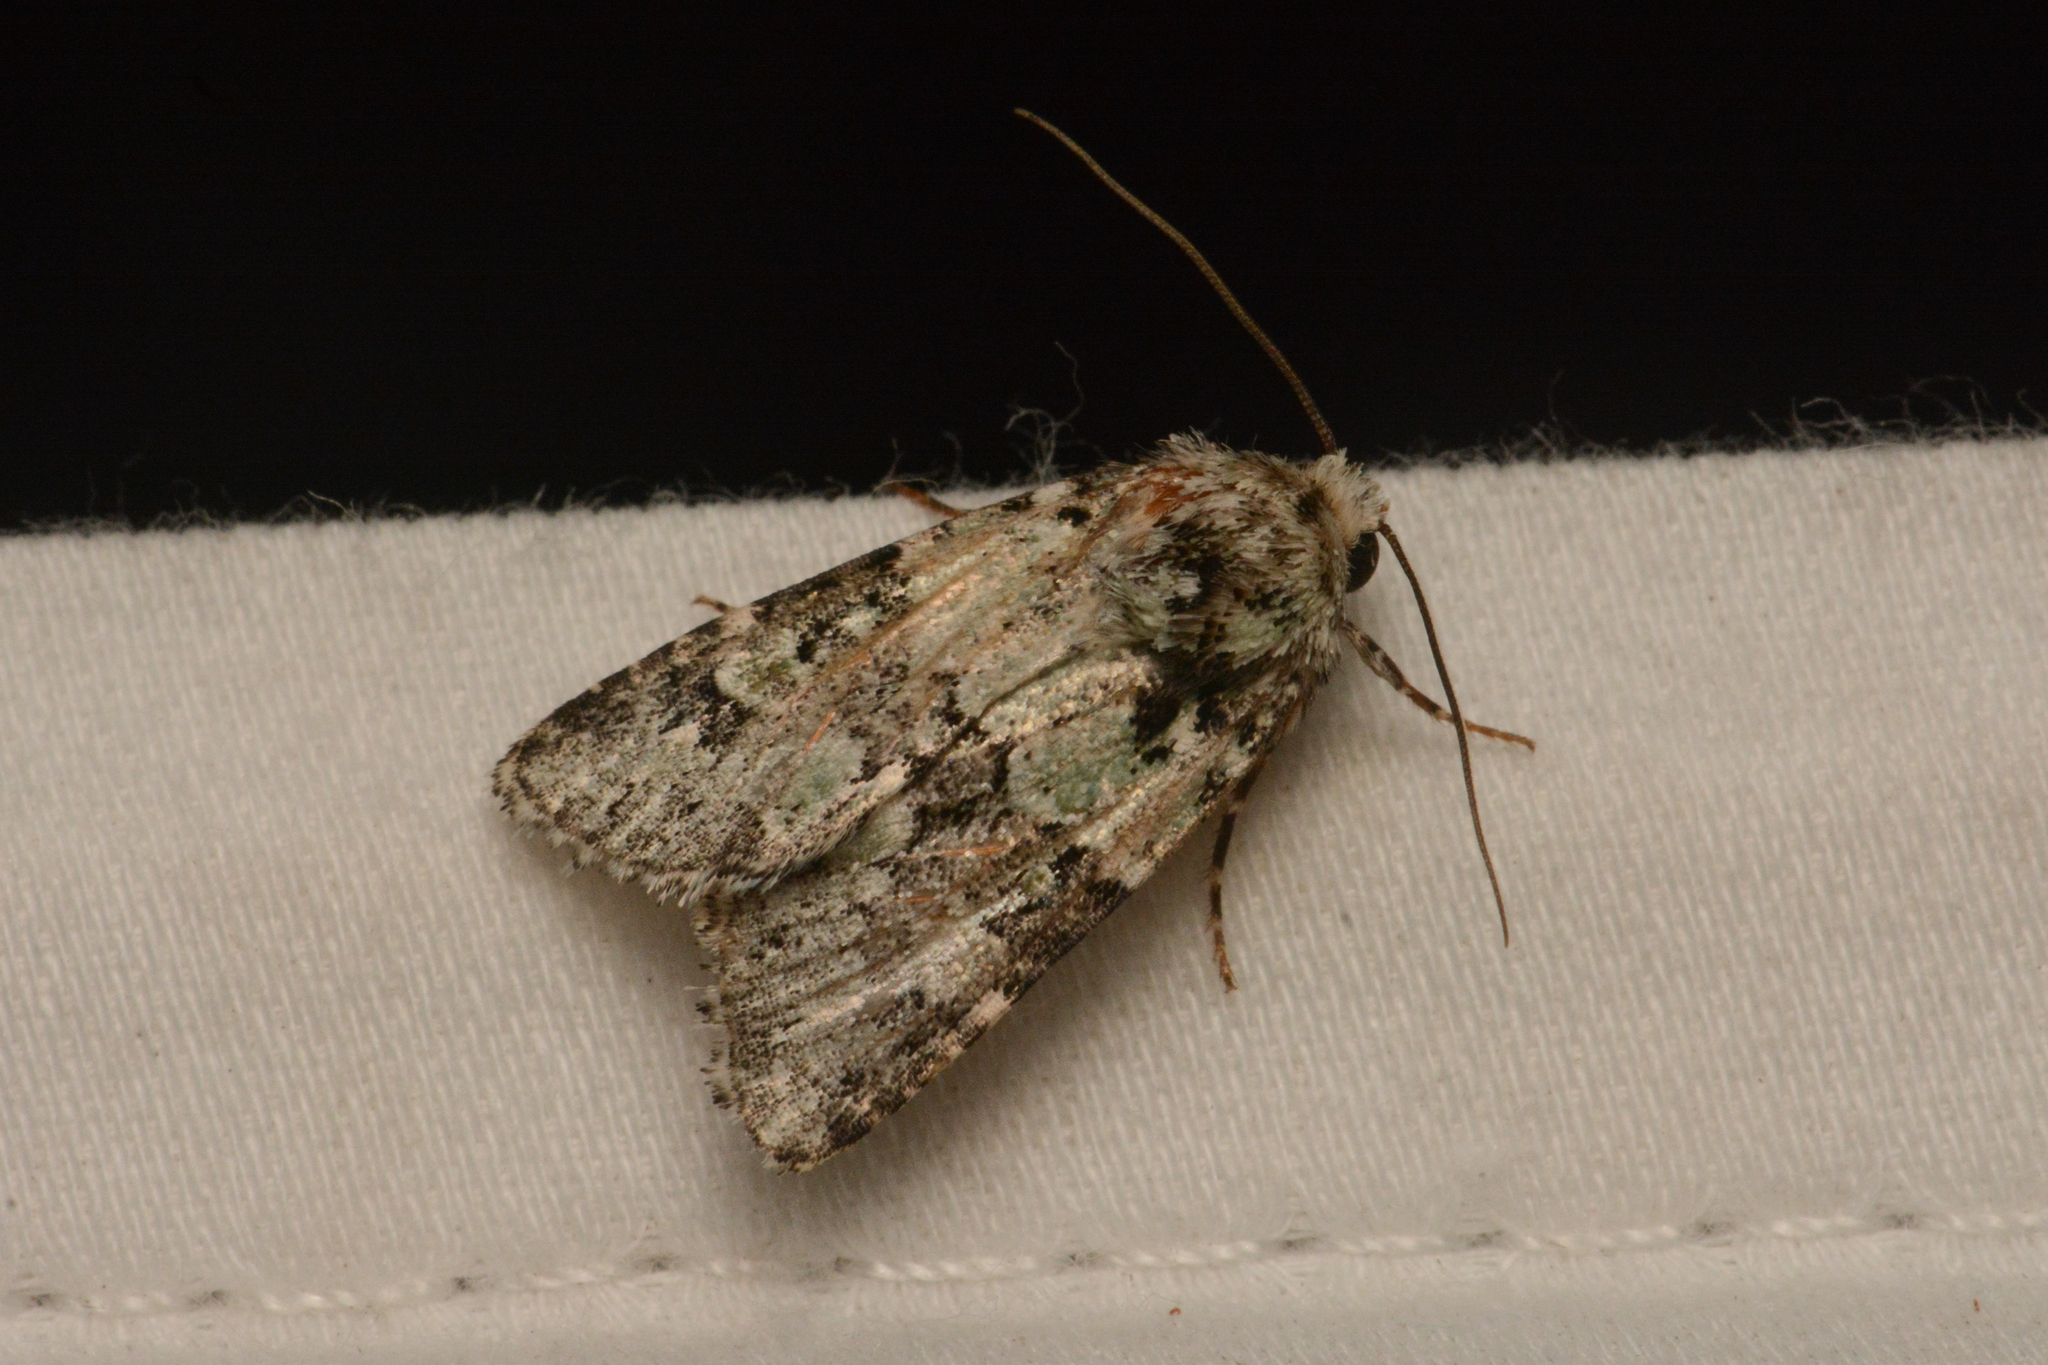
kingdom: Animalia
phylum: Arthropoda
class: Insecta
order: Lepidoptera
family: Noctuidae
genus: Lacinipolia
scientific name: Lacinipolia strigicollis
